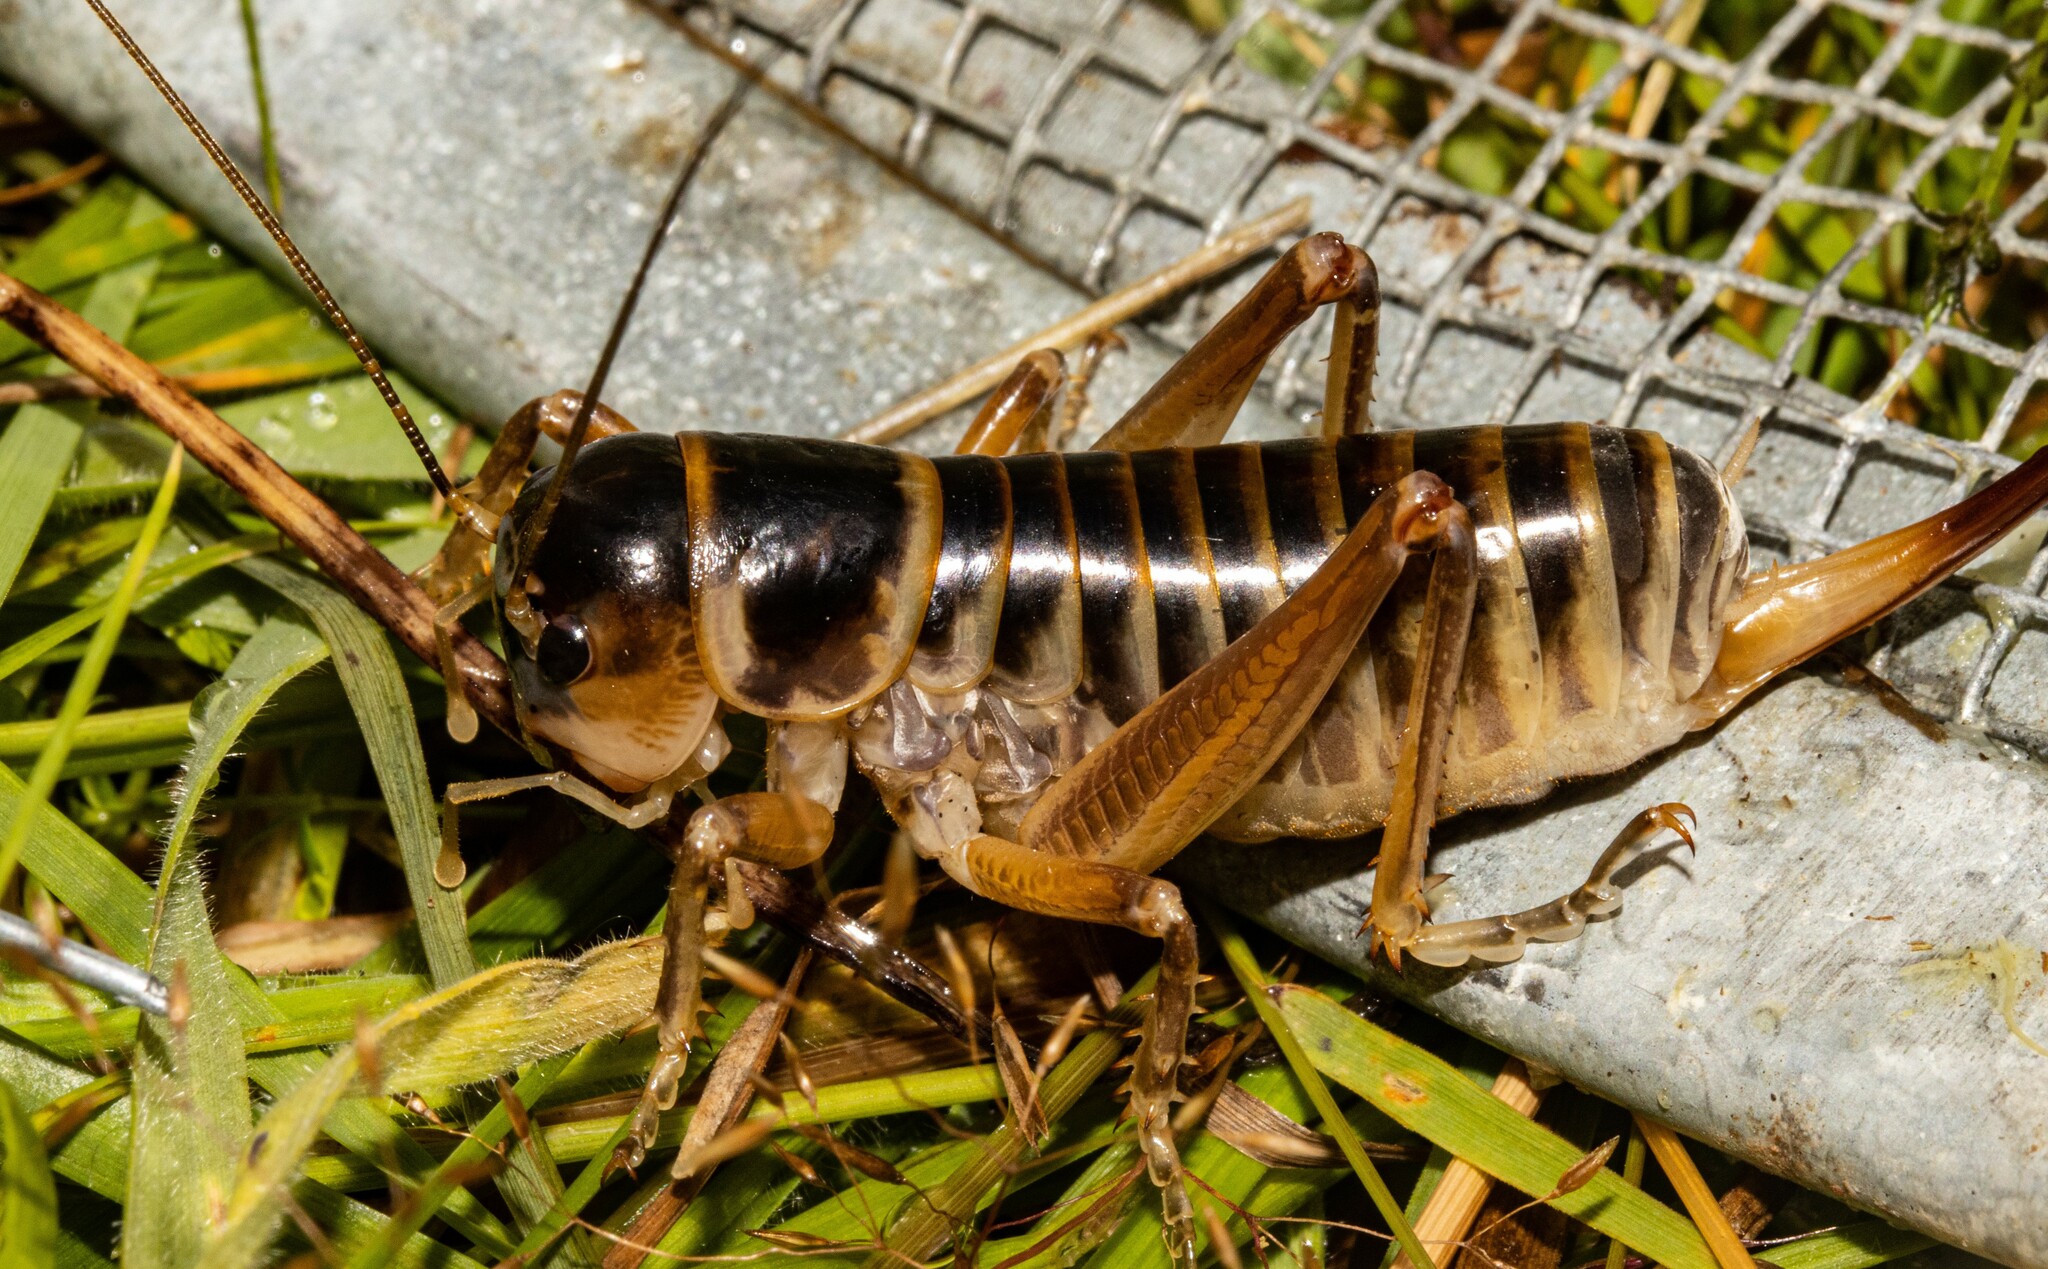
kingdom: Animalia
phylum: Arthropoda
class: Insecta
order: Orthoptera
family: Anostostomatidae
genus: Hemiandrus
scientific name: Hemiandrus focalis
